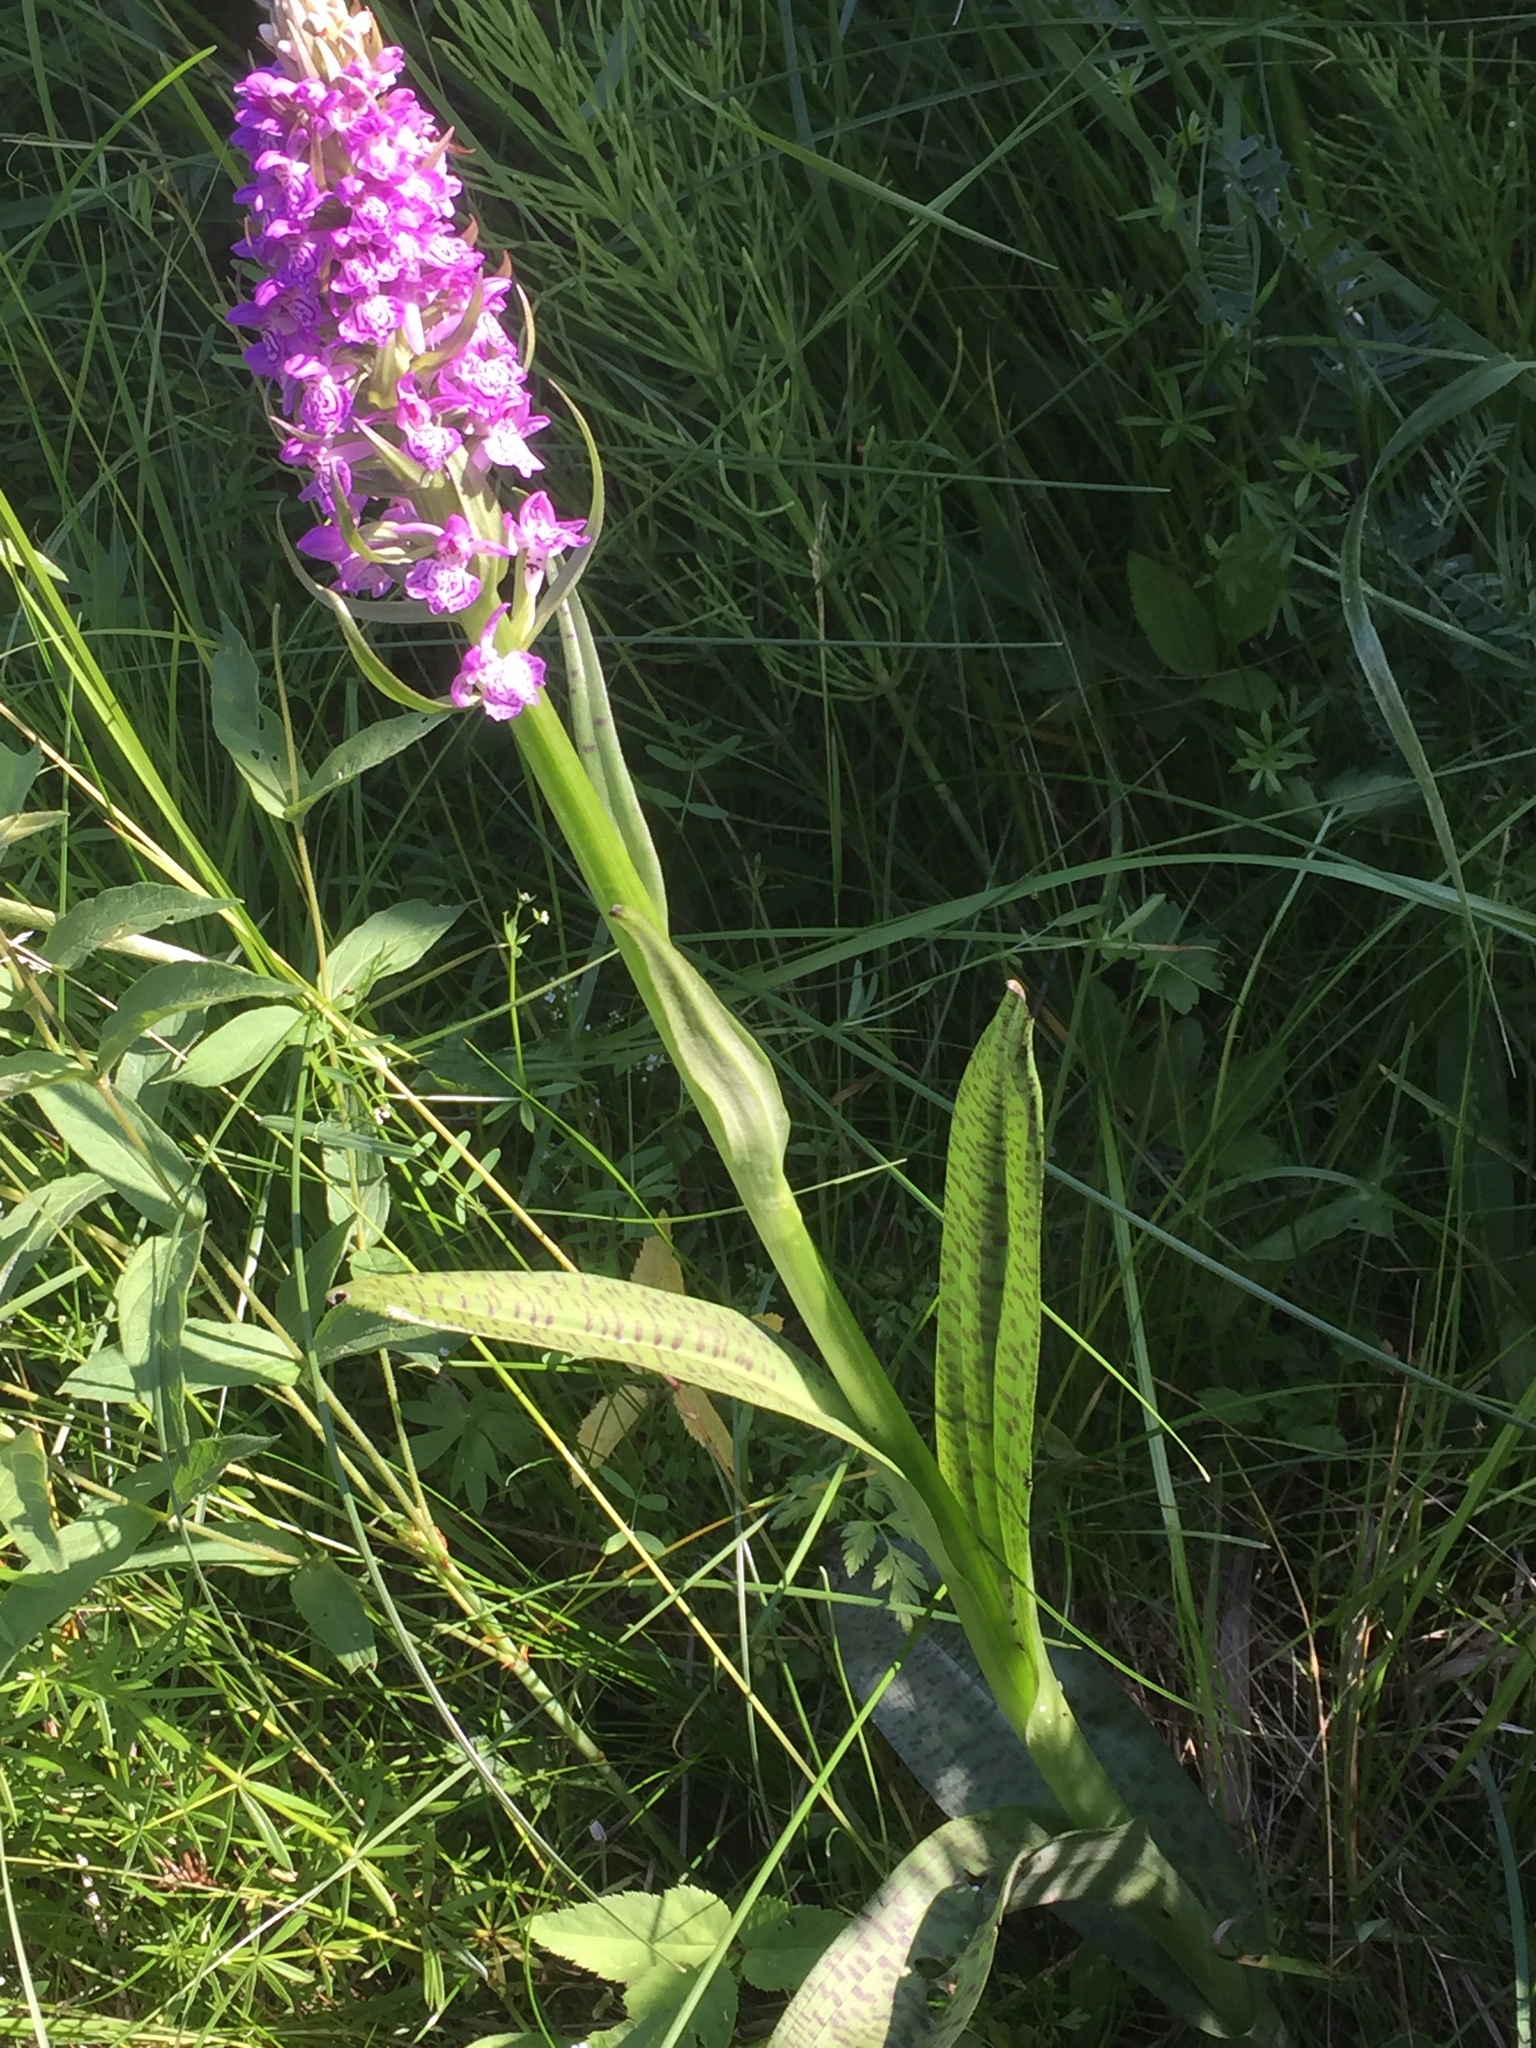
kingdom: Plantae
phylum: Tracheophyta
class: Liliopsida
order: Asparagales
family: Orchidaceae
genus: Dactylorhiza
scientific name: Dactylorhiza majalis
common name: Marsh orchid
